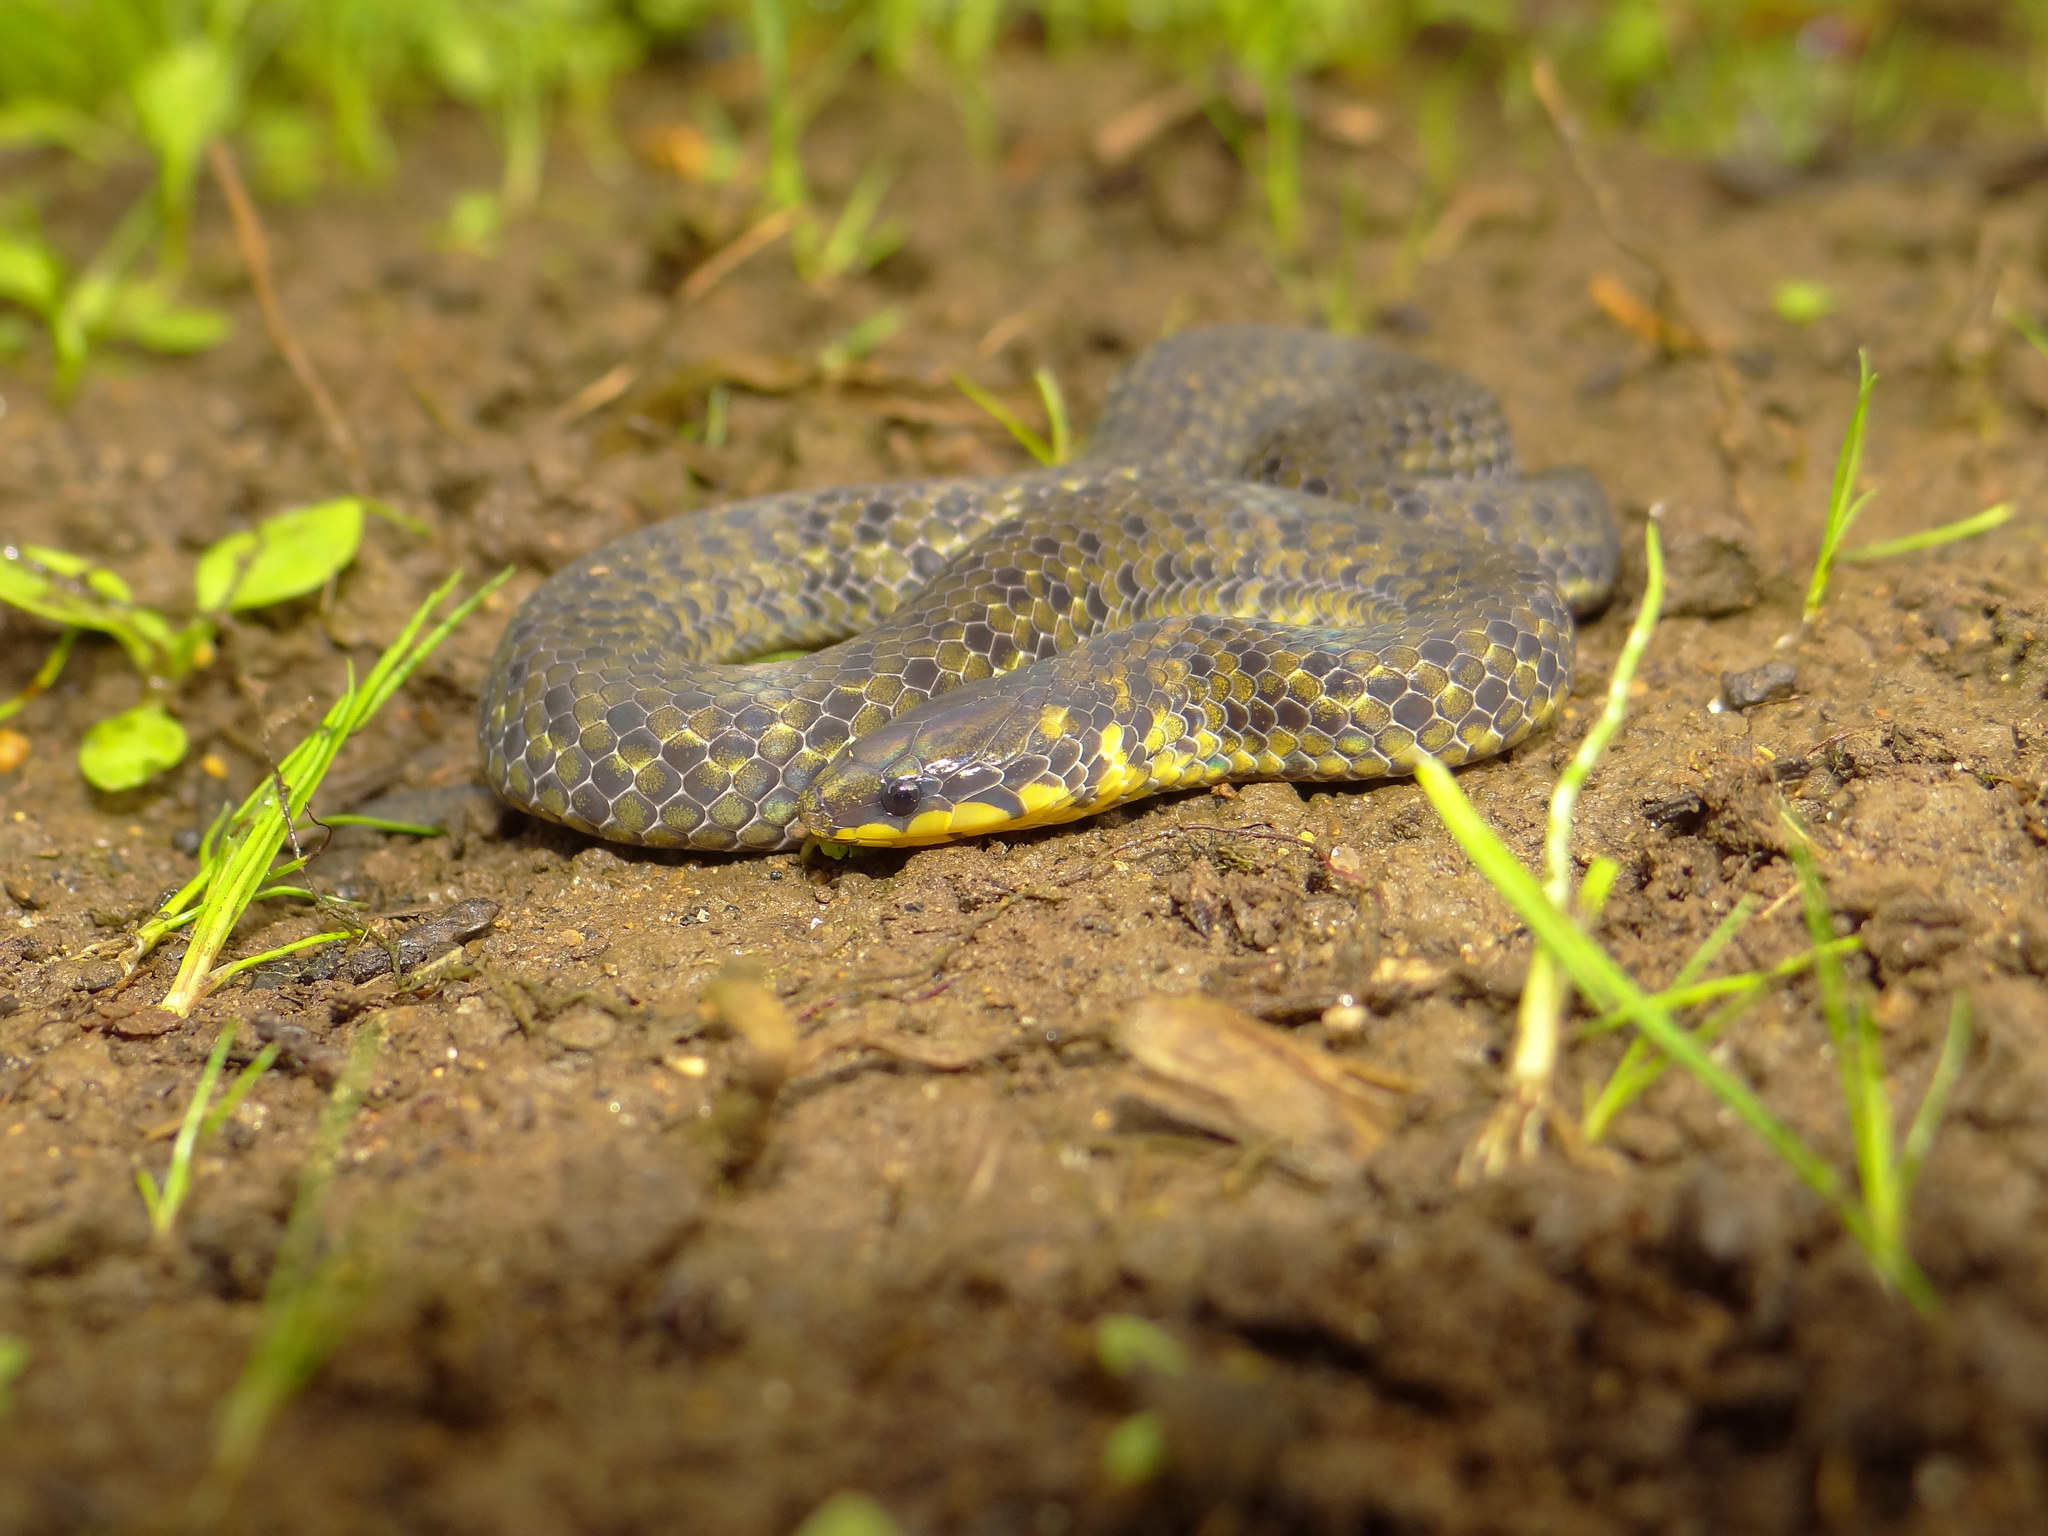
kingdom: Animalia
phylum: Chordata
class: Squamata
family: Pareidae
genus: Xylophis
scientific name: Xylophis mosaicus
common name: Anamalai wood snake
